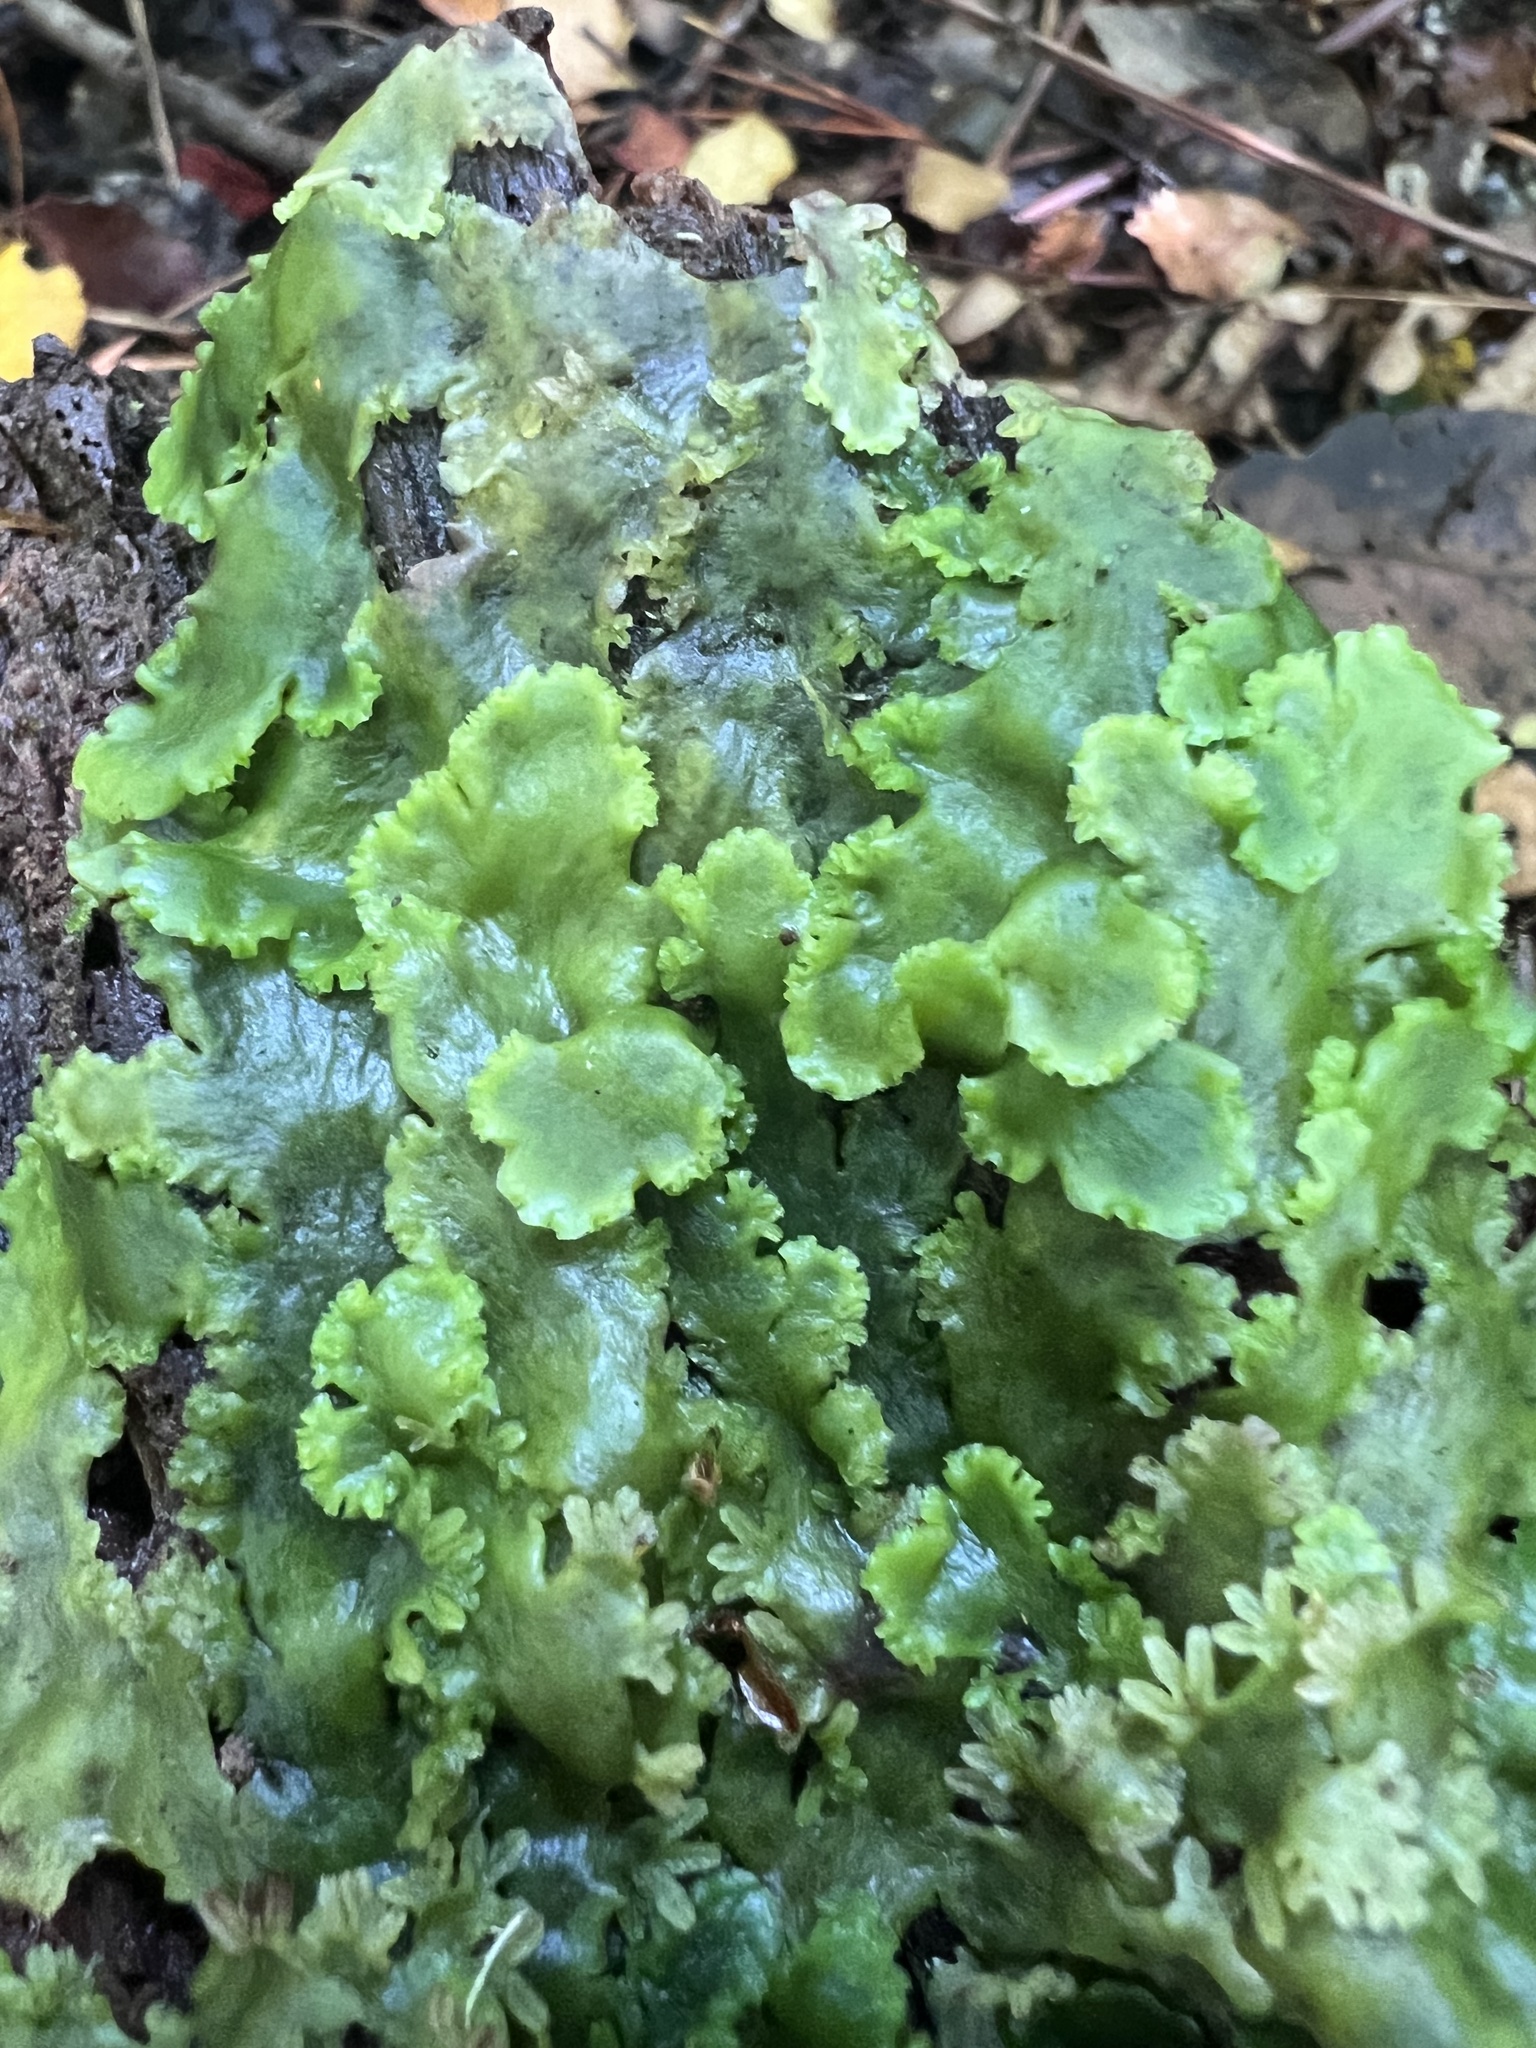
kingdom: Plantae
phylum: Marchantiophyta
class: Jungermanniopsida
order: Metzgeriales
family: Aneuraceae
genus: Lobatiriccardia
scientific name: Lobatiriccardia alterniloba
